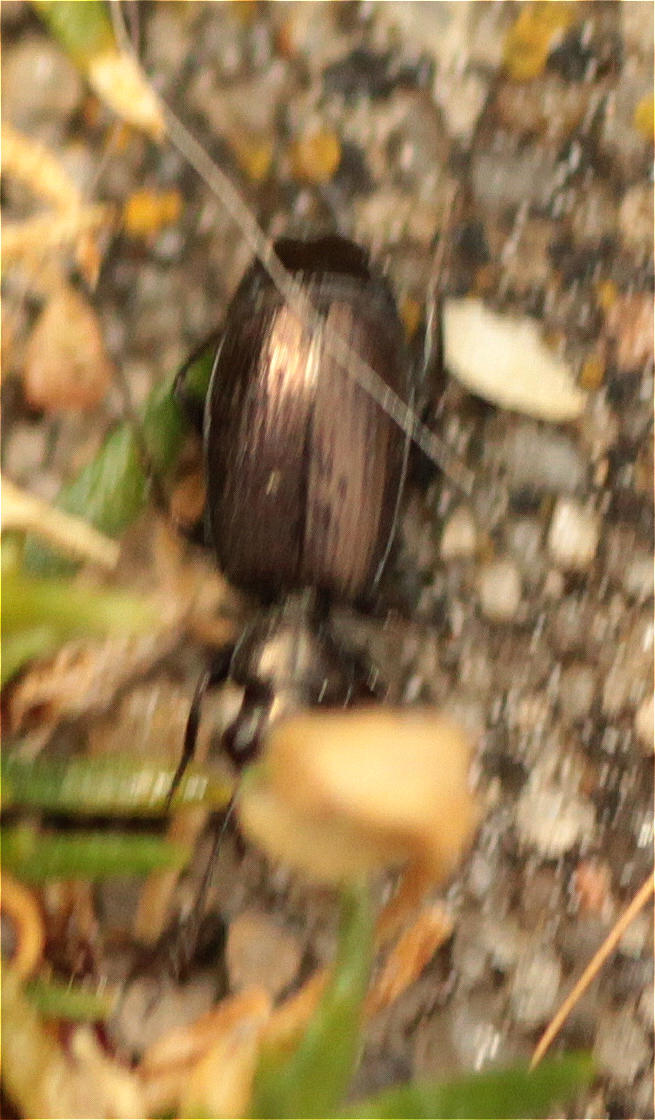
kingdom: Animalia
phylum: Arthropoda
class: Insecta
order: Coleoptera
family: Carabidae
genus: Syntomus
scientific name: Syntomus foveatus
